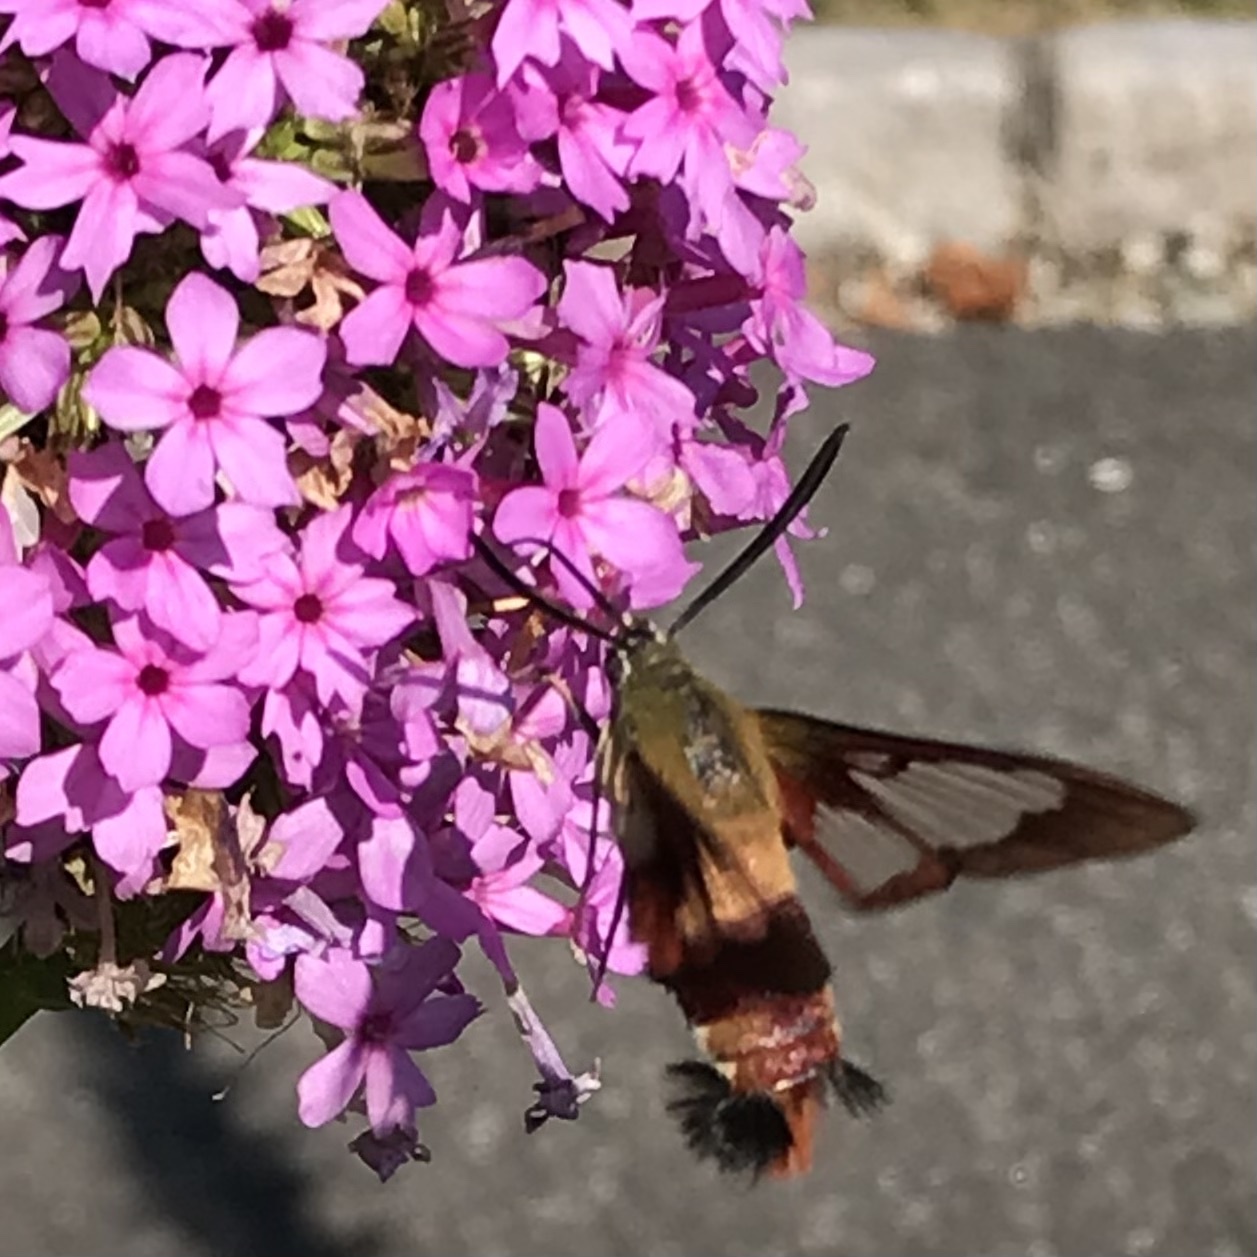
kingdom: Animalia
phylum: Arthropoda
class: Insecta
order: Lepidoptera
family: Sphingidae
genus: Hemaris
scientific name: Hemaris thysbe
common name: Common clear-wing
